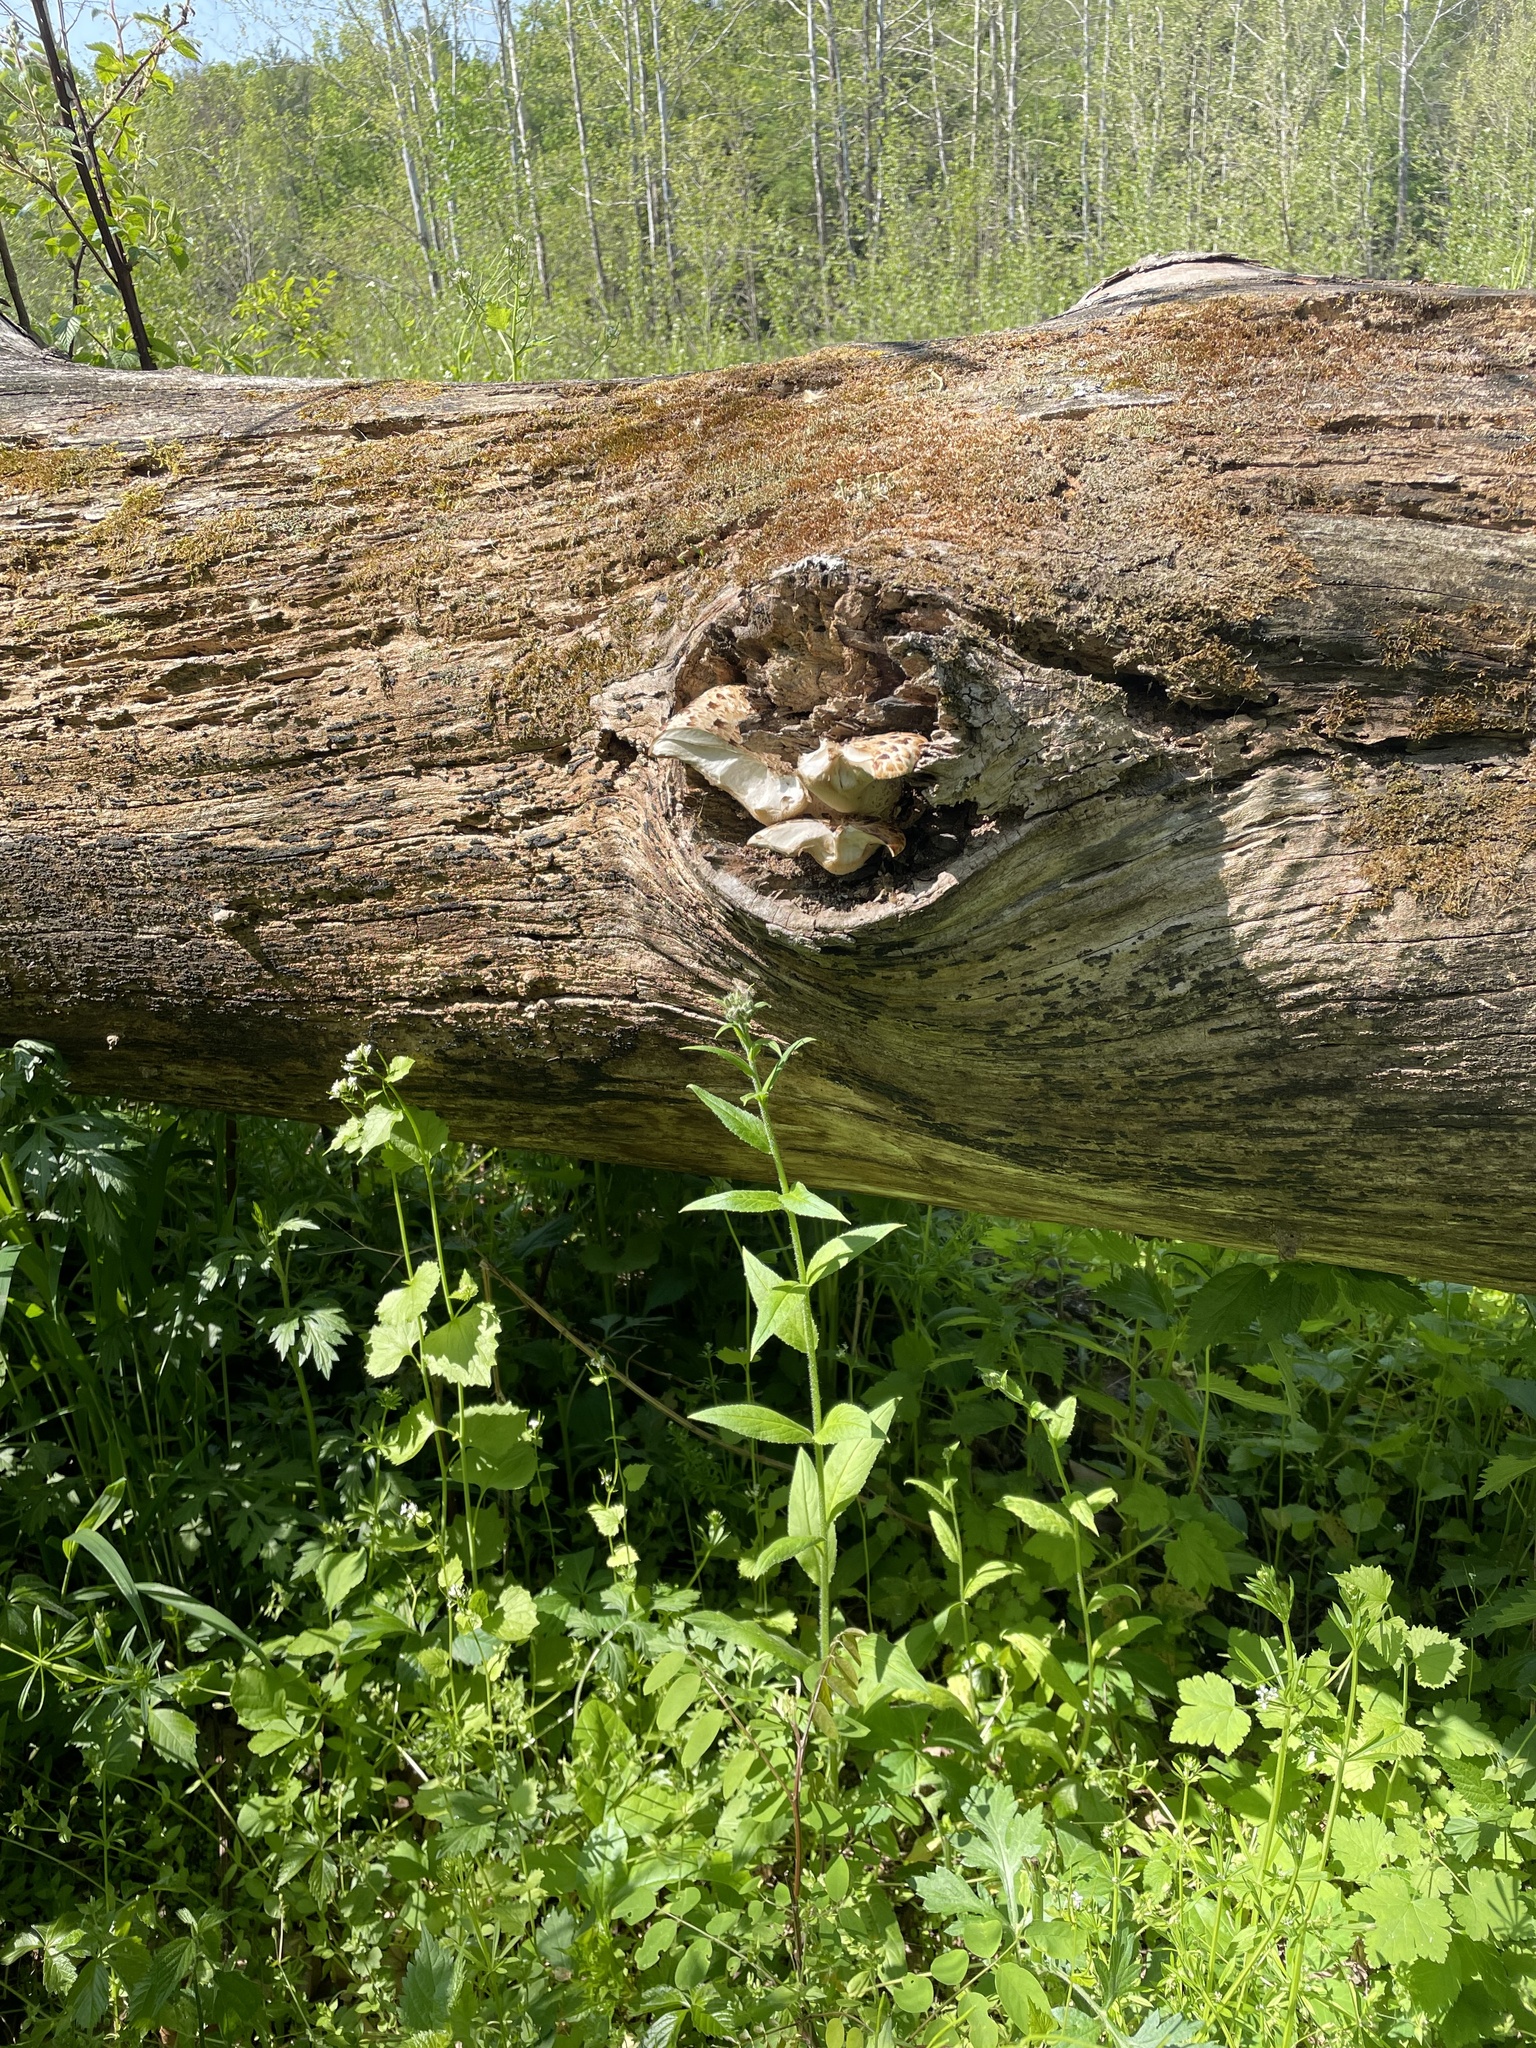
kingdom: Fungi
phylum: Basidiomycota
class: Agaricomycetes
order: Polyporales
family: Polyporaceae
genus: Cerioporus
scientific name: Cerioporus squamosus
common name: Dryad's saddle
